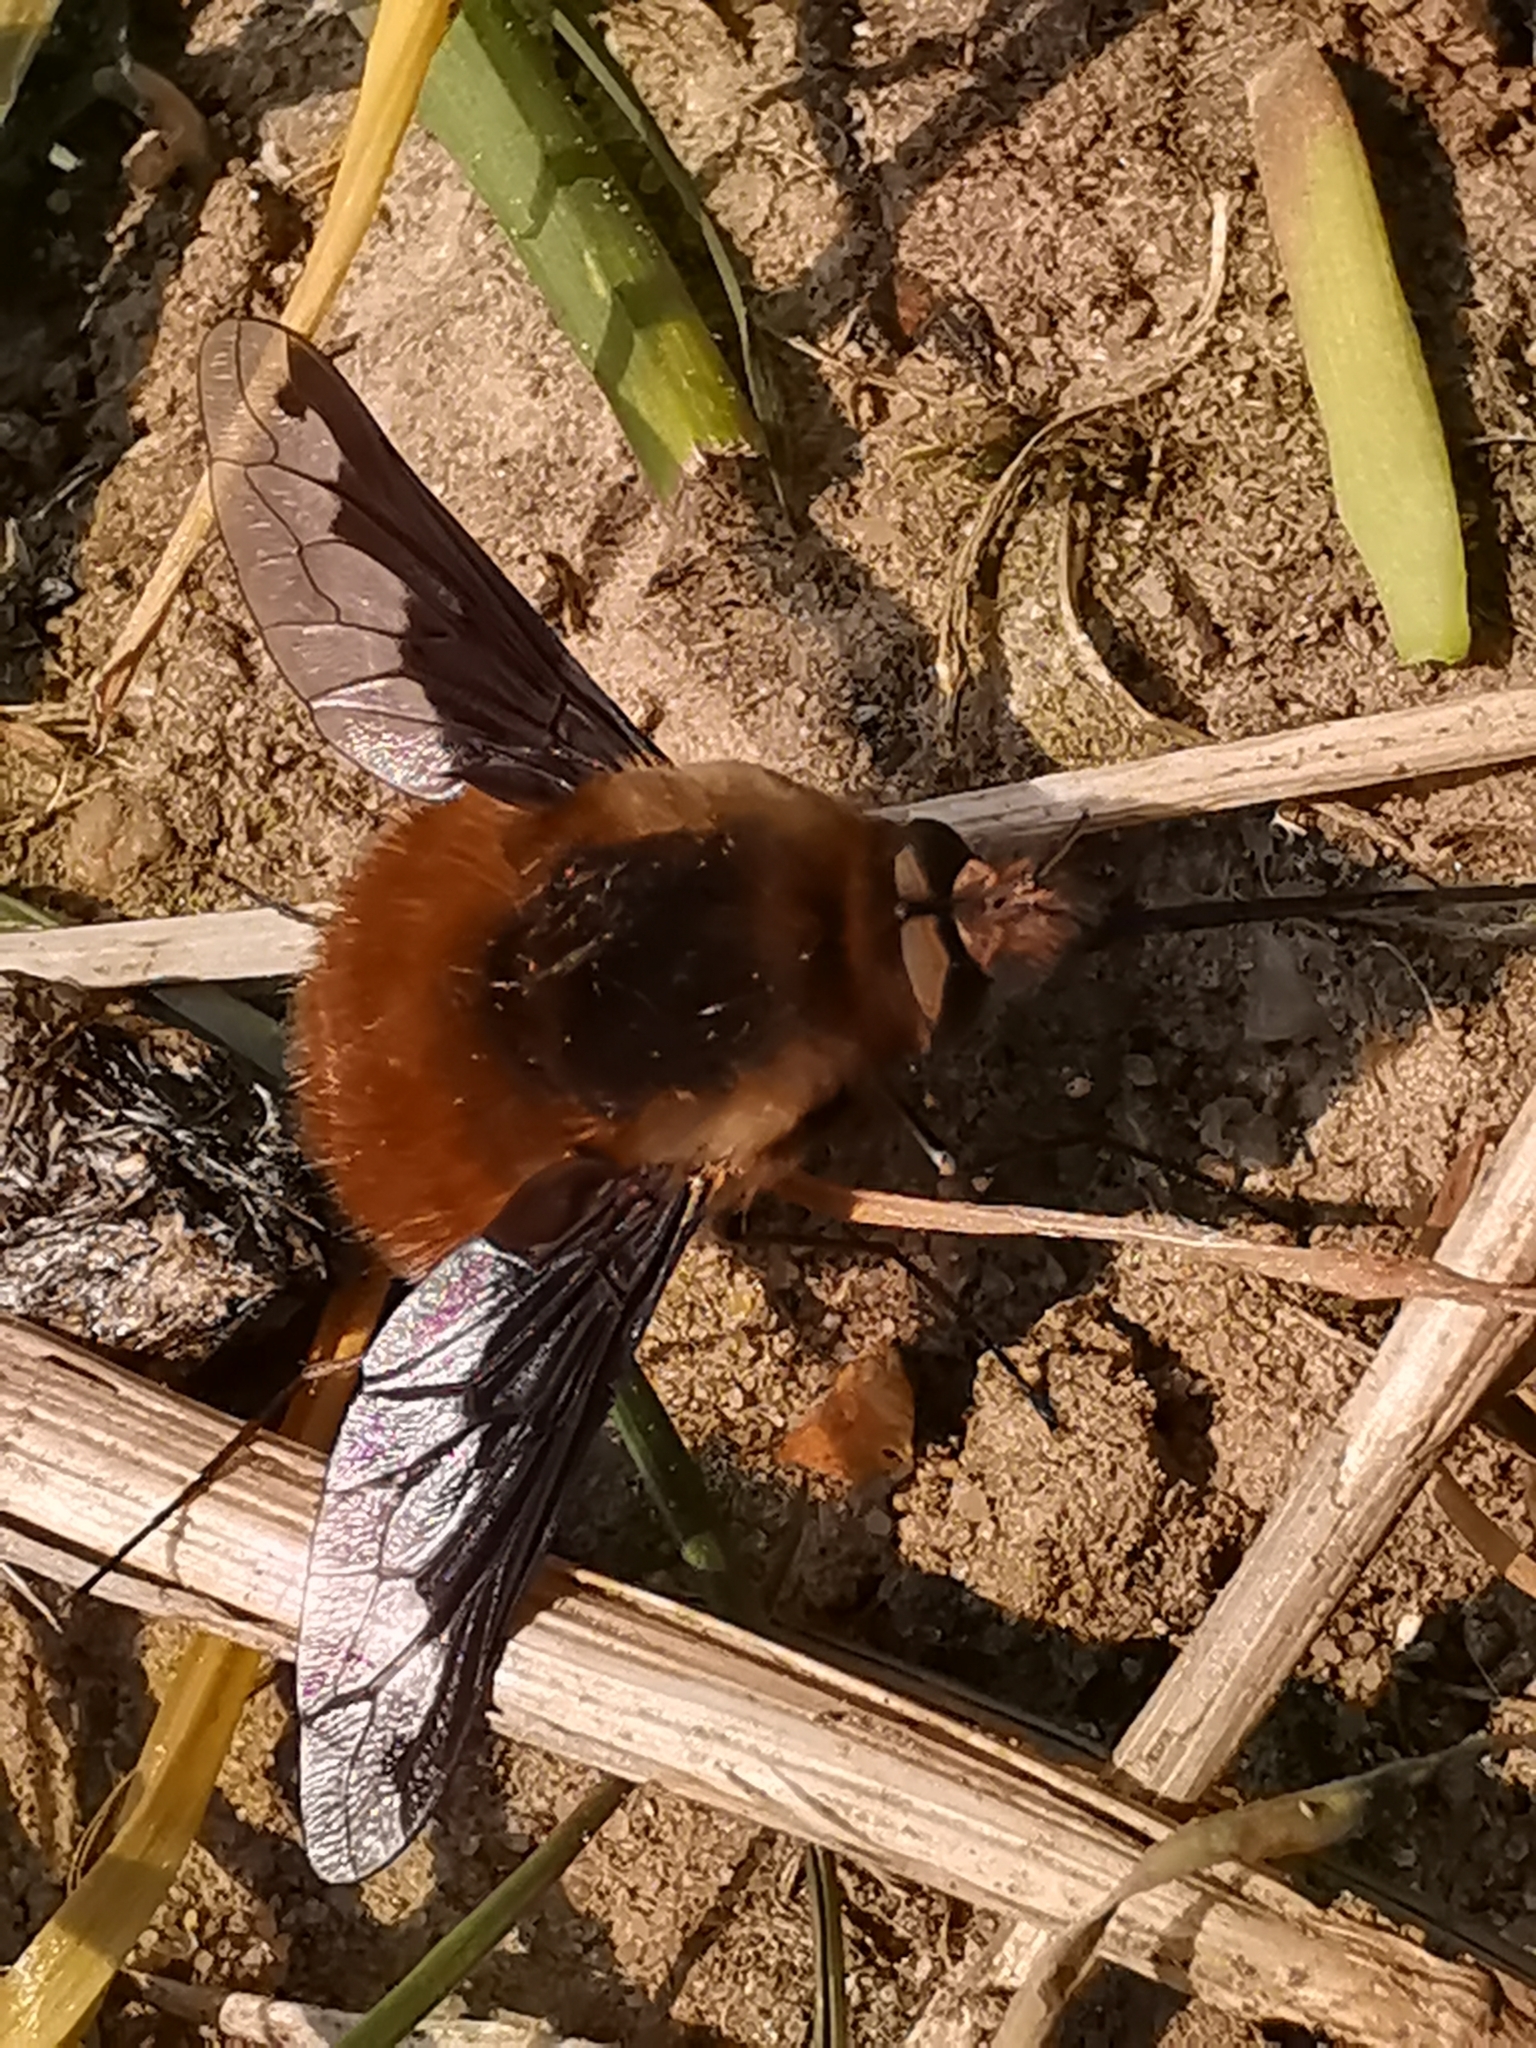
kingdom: Animalia
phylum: Arthropoda
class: Insecta
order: Diptera
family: Bombyliidae
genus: Bombylius
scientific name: Bombylius major
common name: Bee fly
